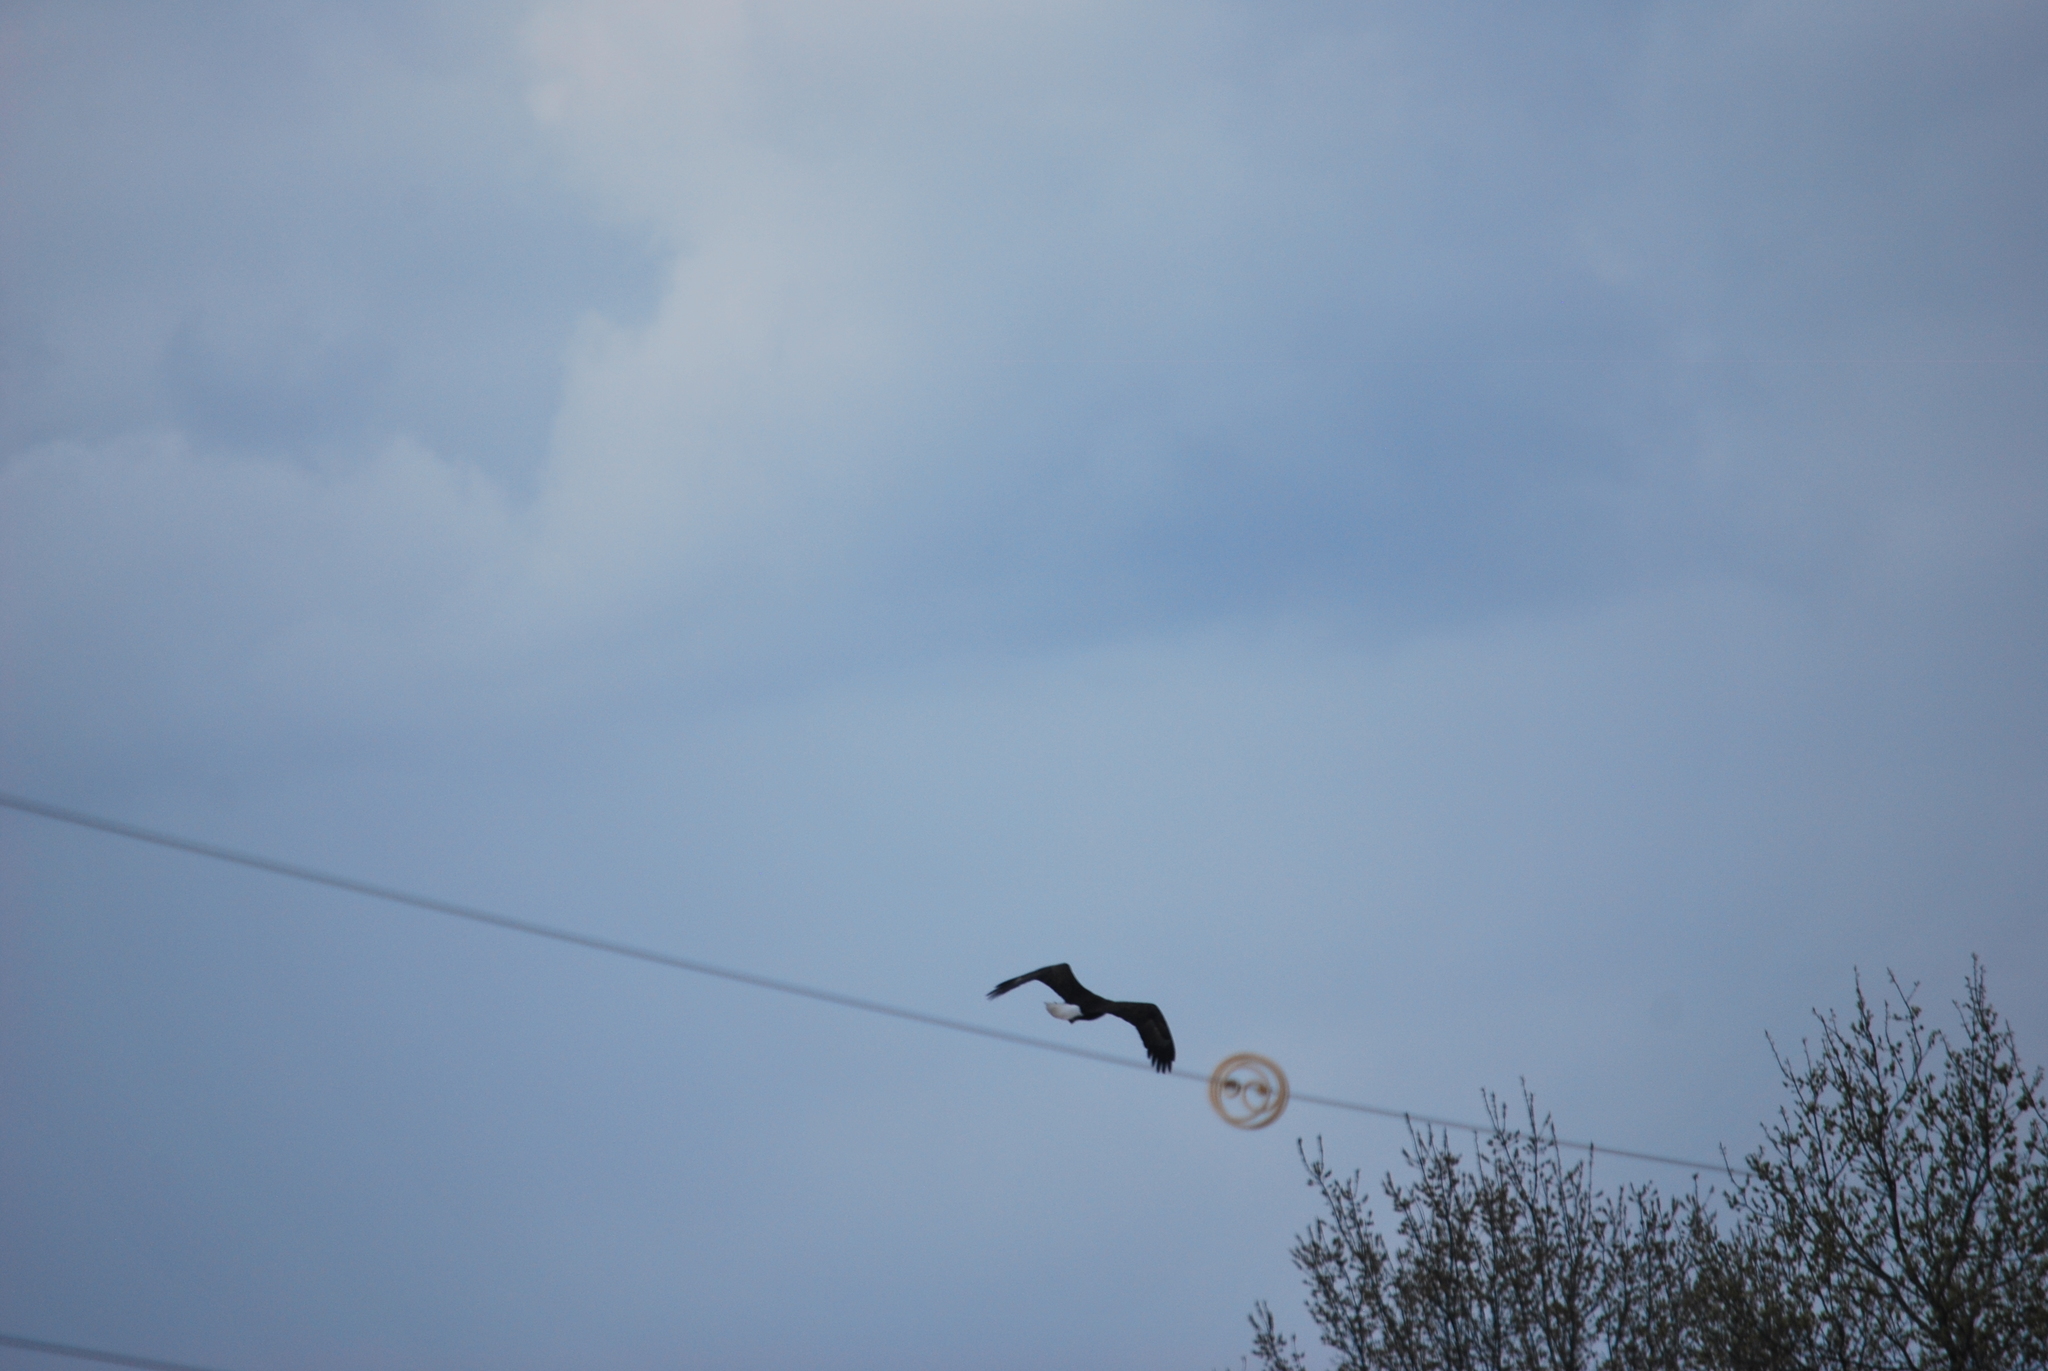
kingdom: Animalia
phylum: Chordata
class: Aves
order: Accipitriformes
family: Accipitridae
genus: Haliaeetus
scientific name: Haliaeetus leucocephalus
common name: Bald eagle
